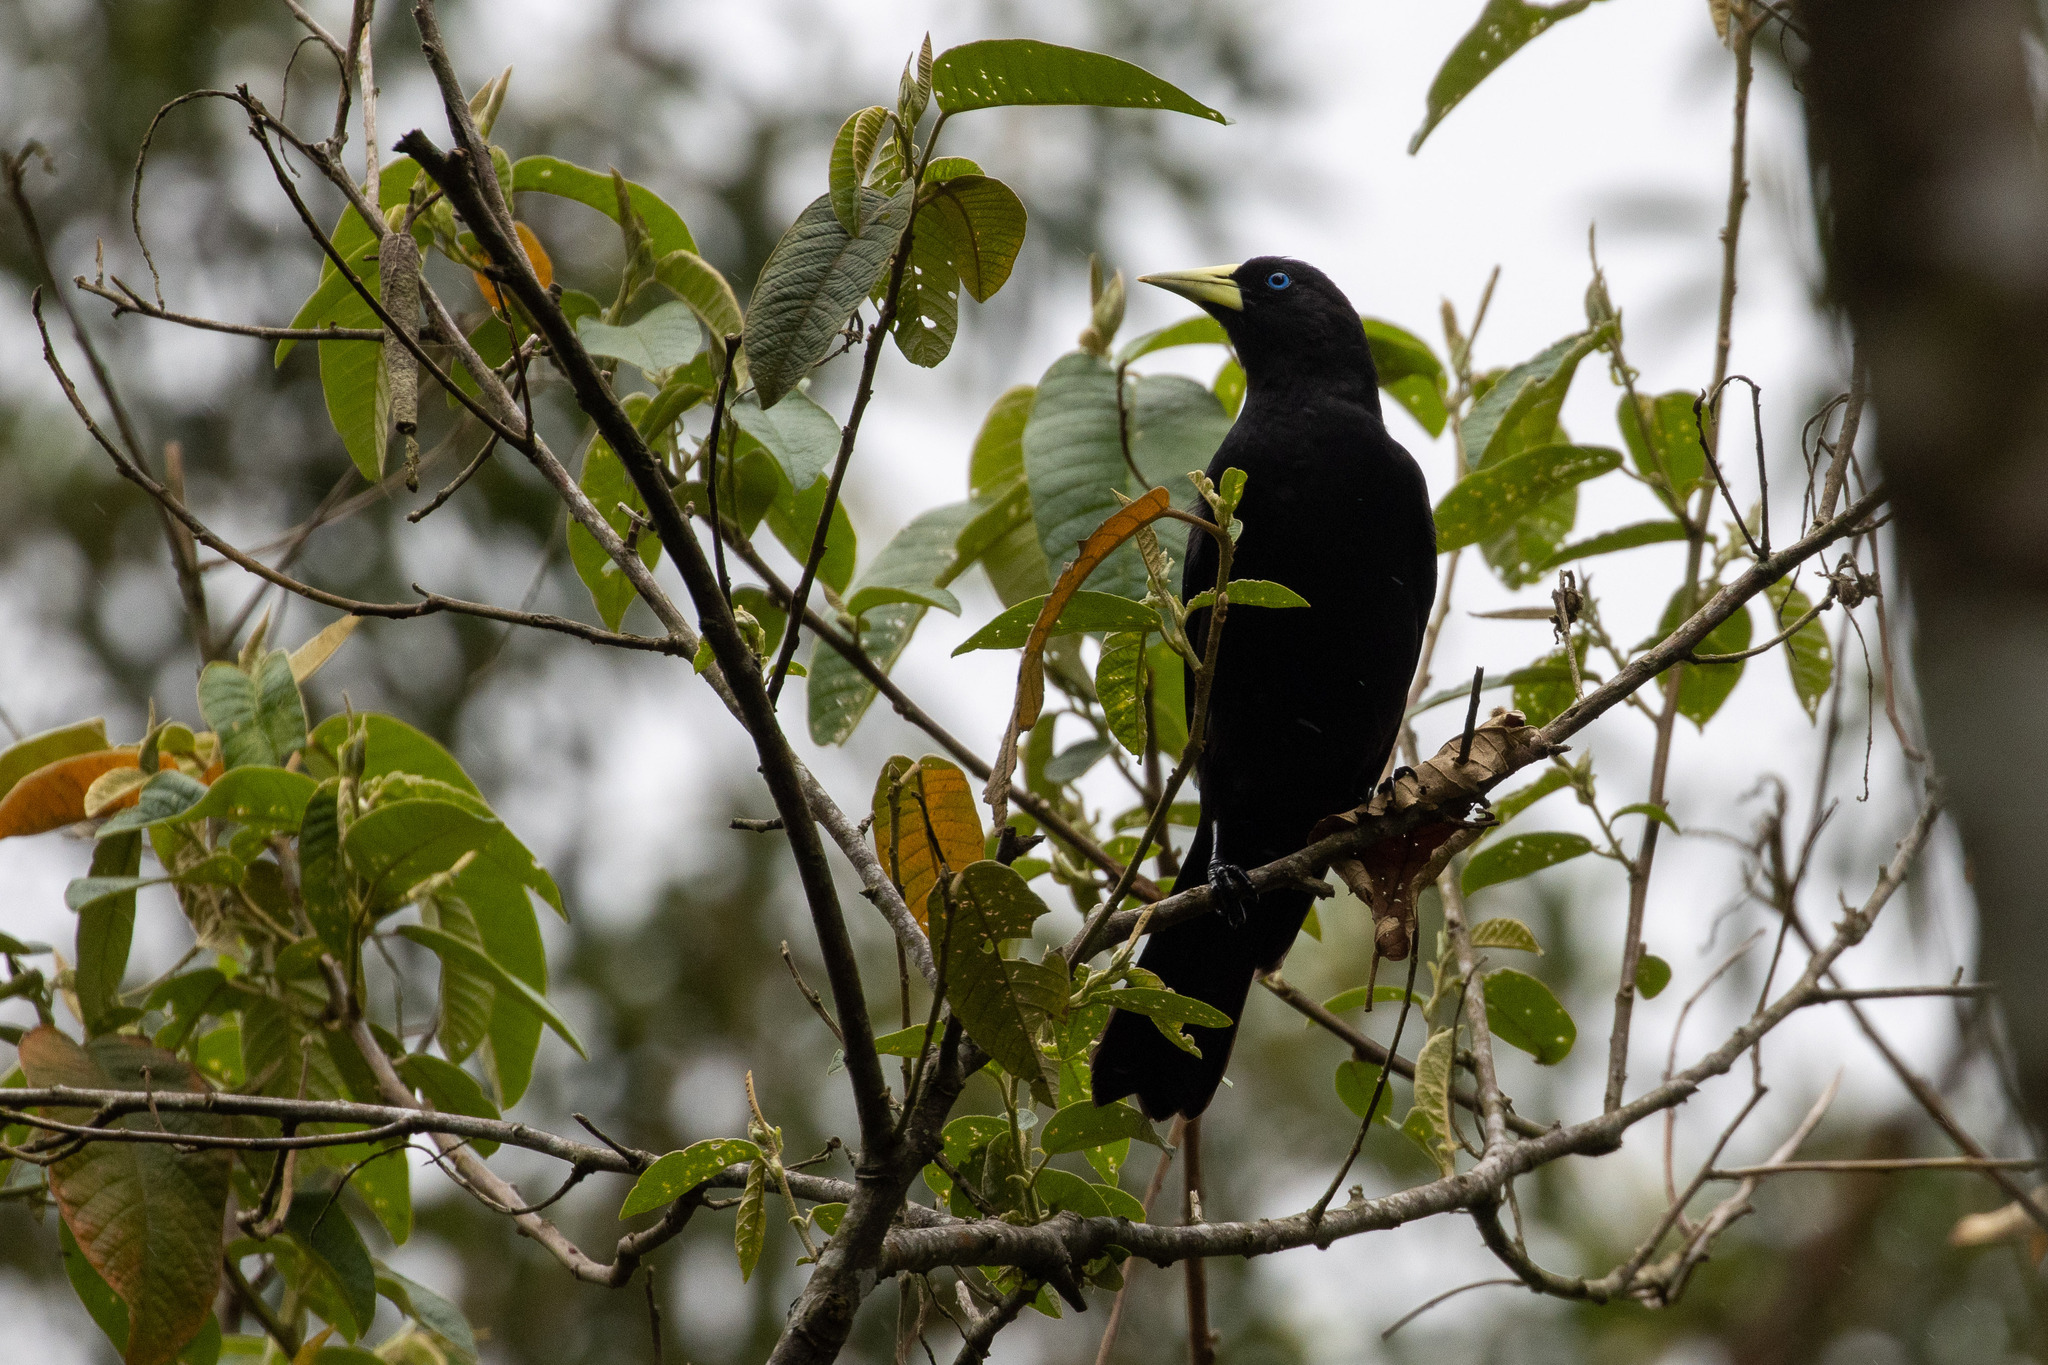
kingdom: Animalia
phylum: Chordata
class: Aves
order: Passeriformes
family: Icteridae
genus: Cacicus
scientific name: Cacicus haemorrhous
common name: Red-rumped cacique
